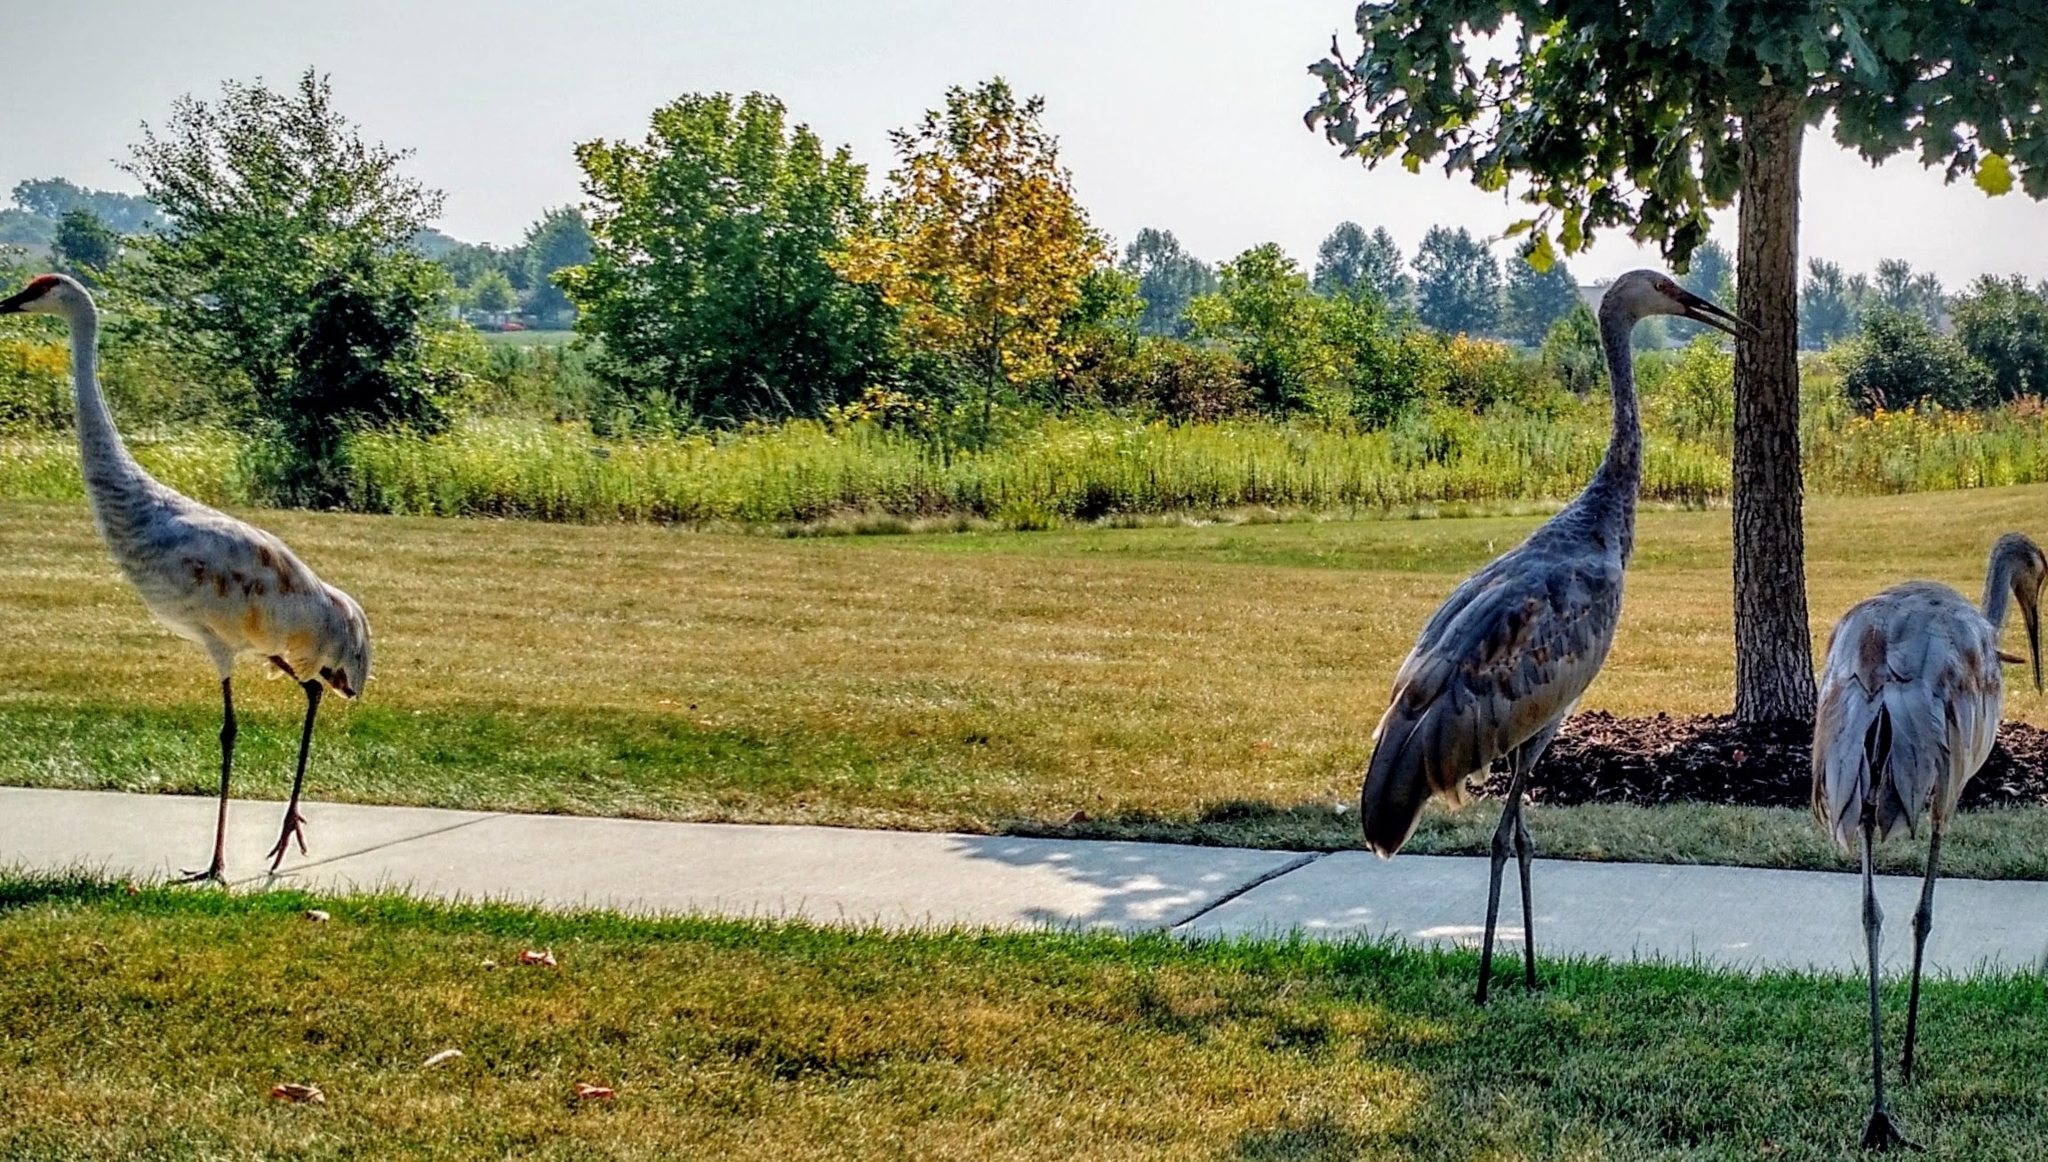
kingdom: Animalia
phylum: Chordata
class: Aves
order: Gruiformes
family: Gruidae
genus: Grus
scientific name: Grus canadensis
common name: Sandhill crane
